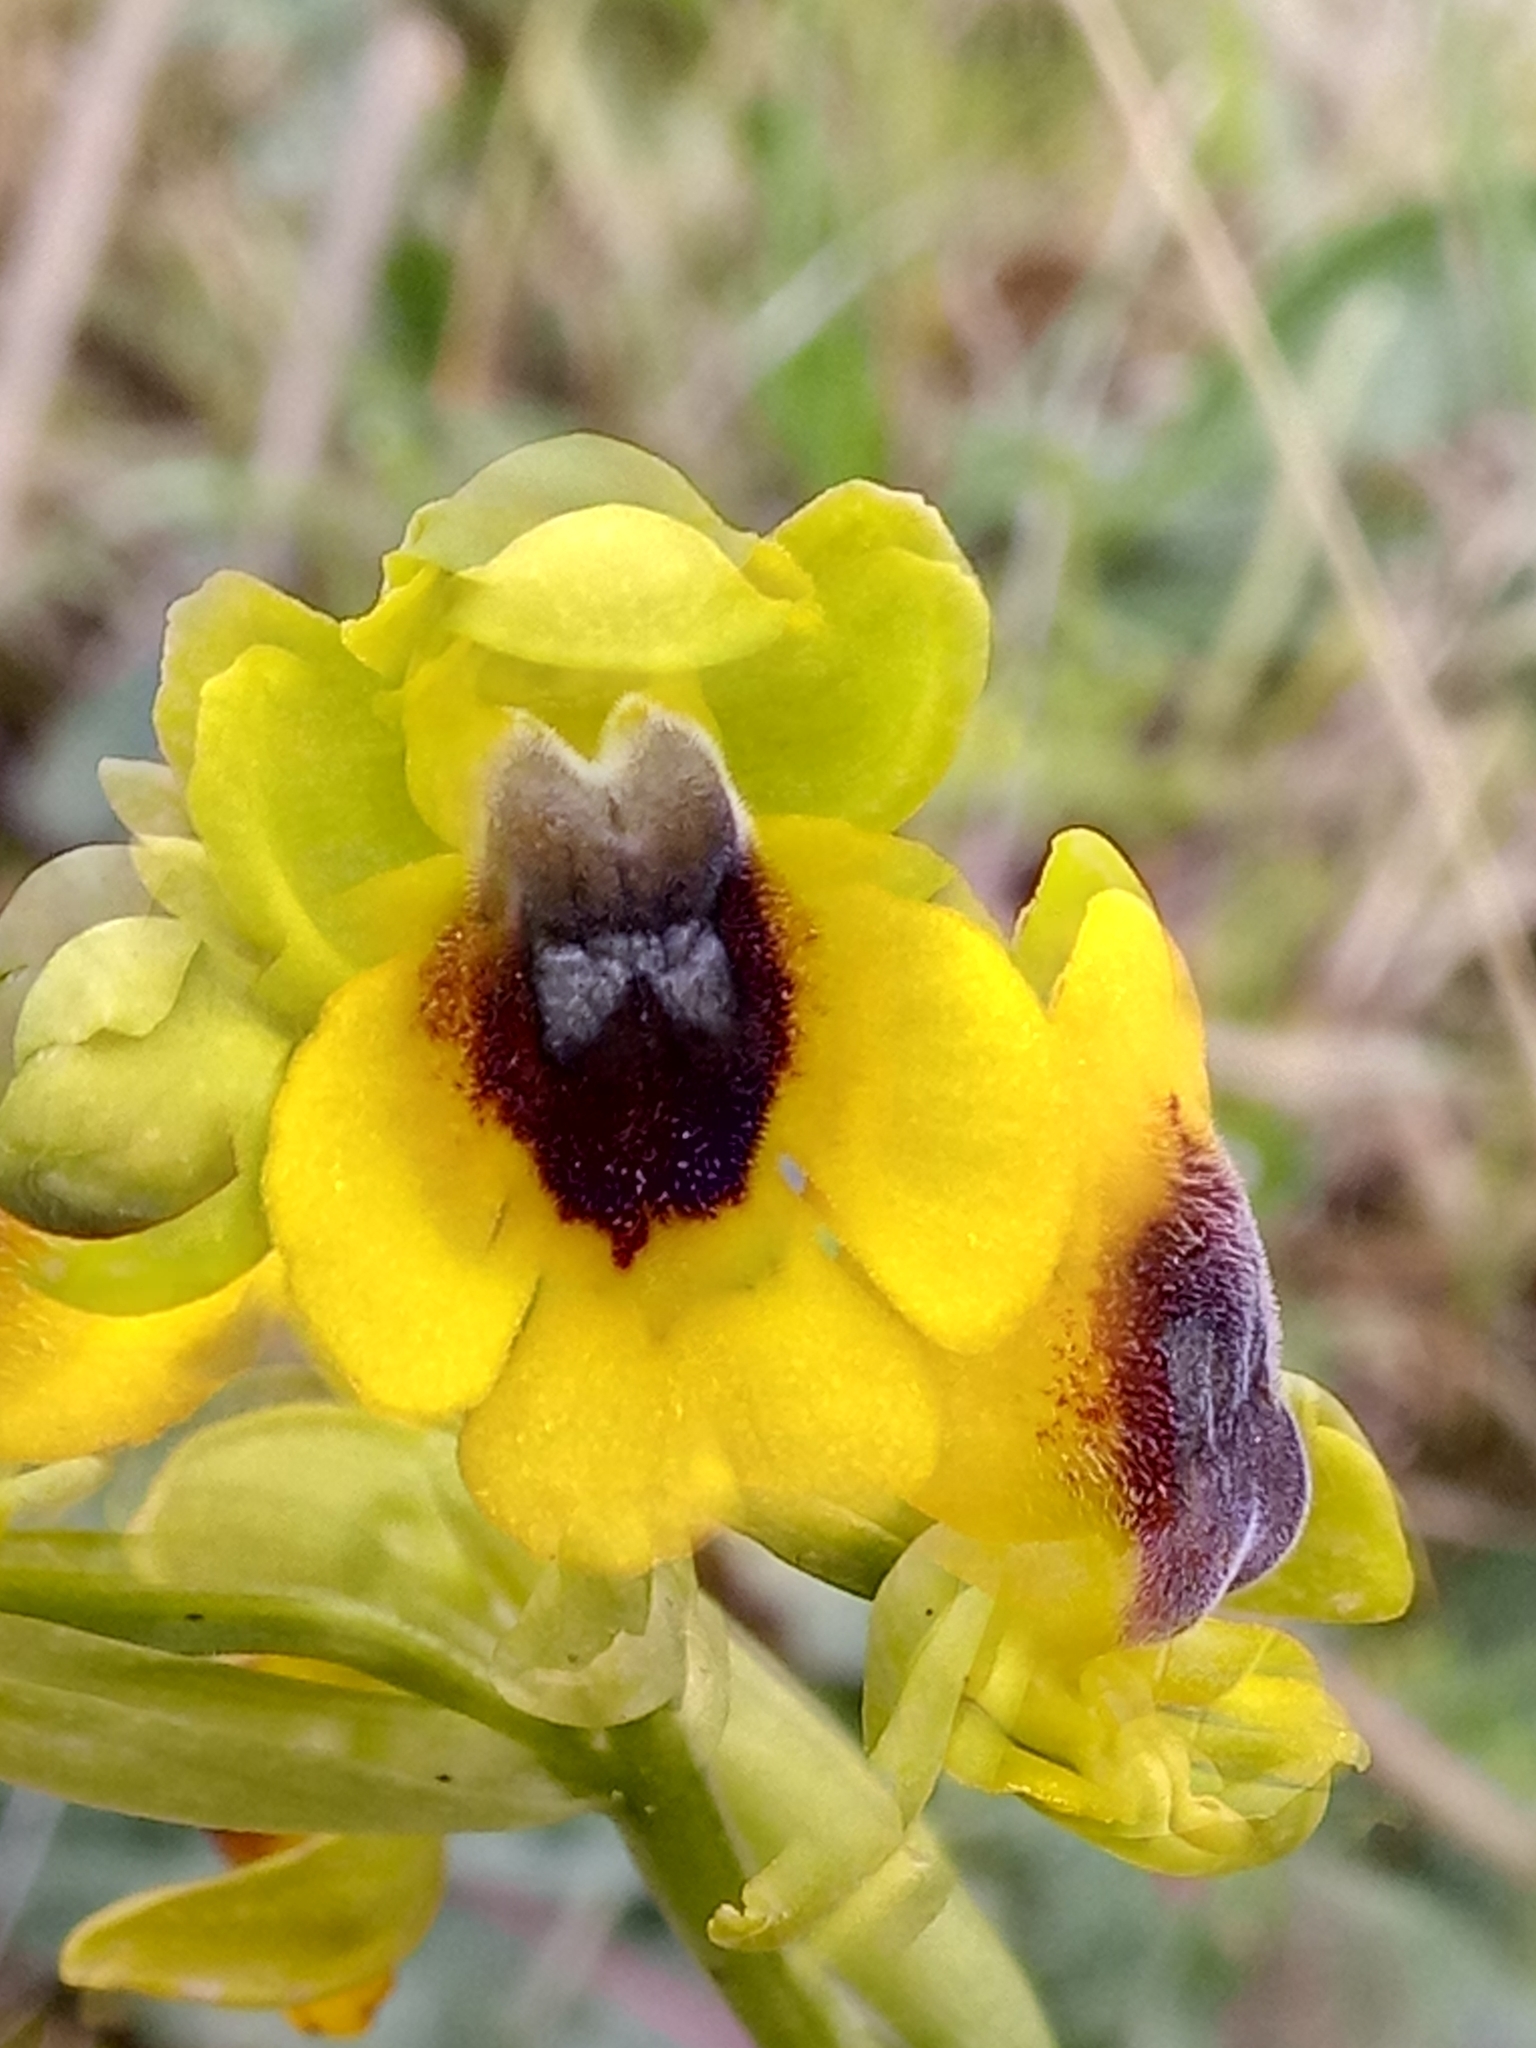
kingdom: Plantae
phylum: Tracheophyta
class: Liliopsida
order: Asparagales
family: Orchidaceae
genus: Ophrys
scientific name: Ophrys lutea
